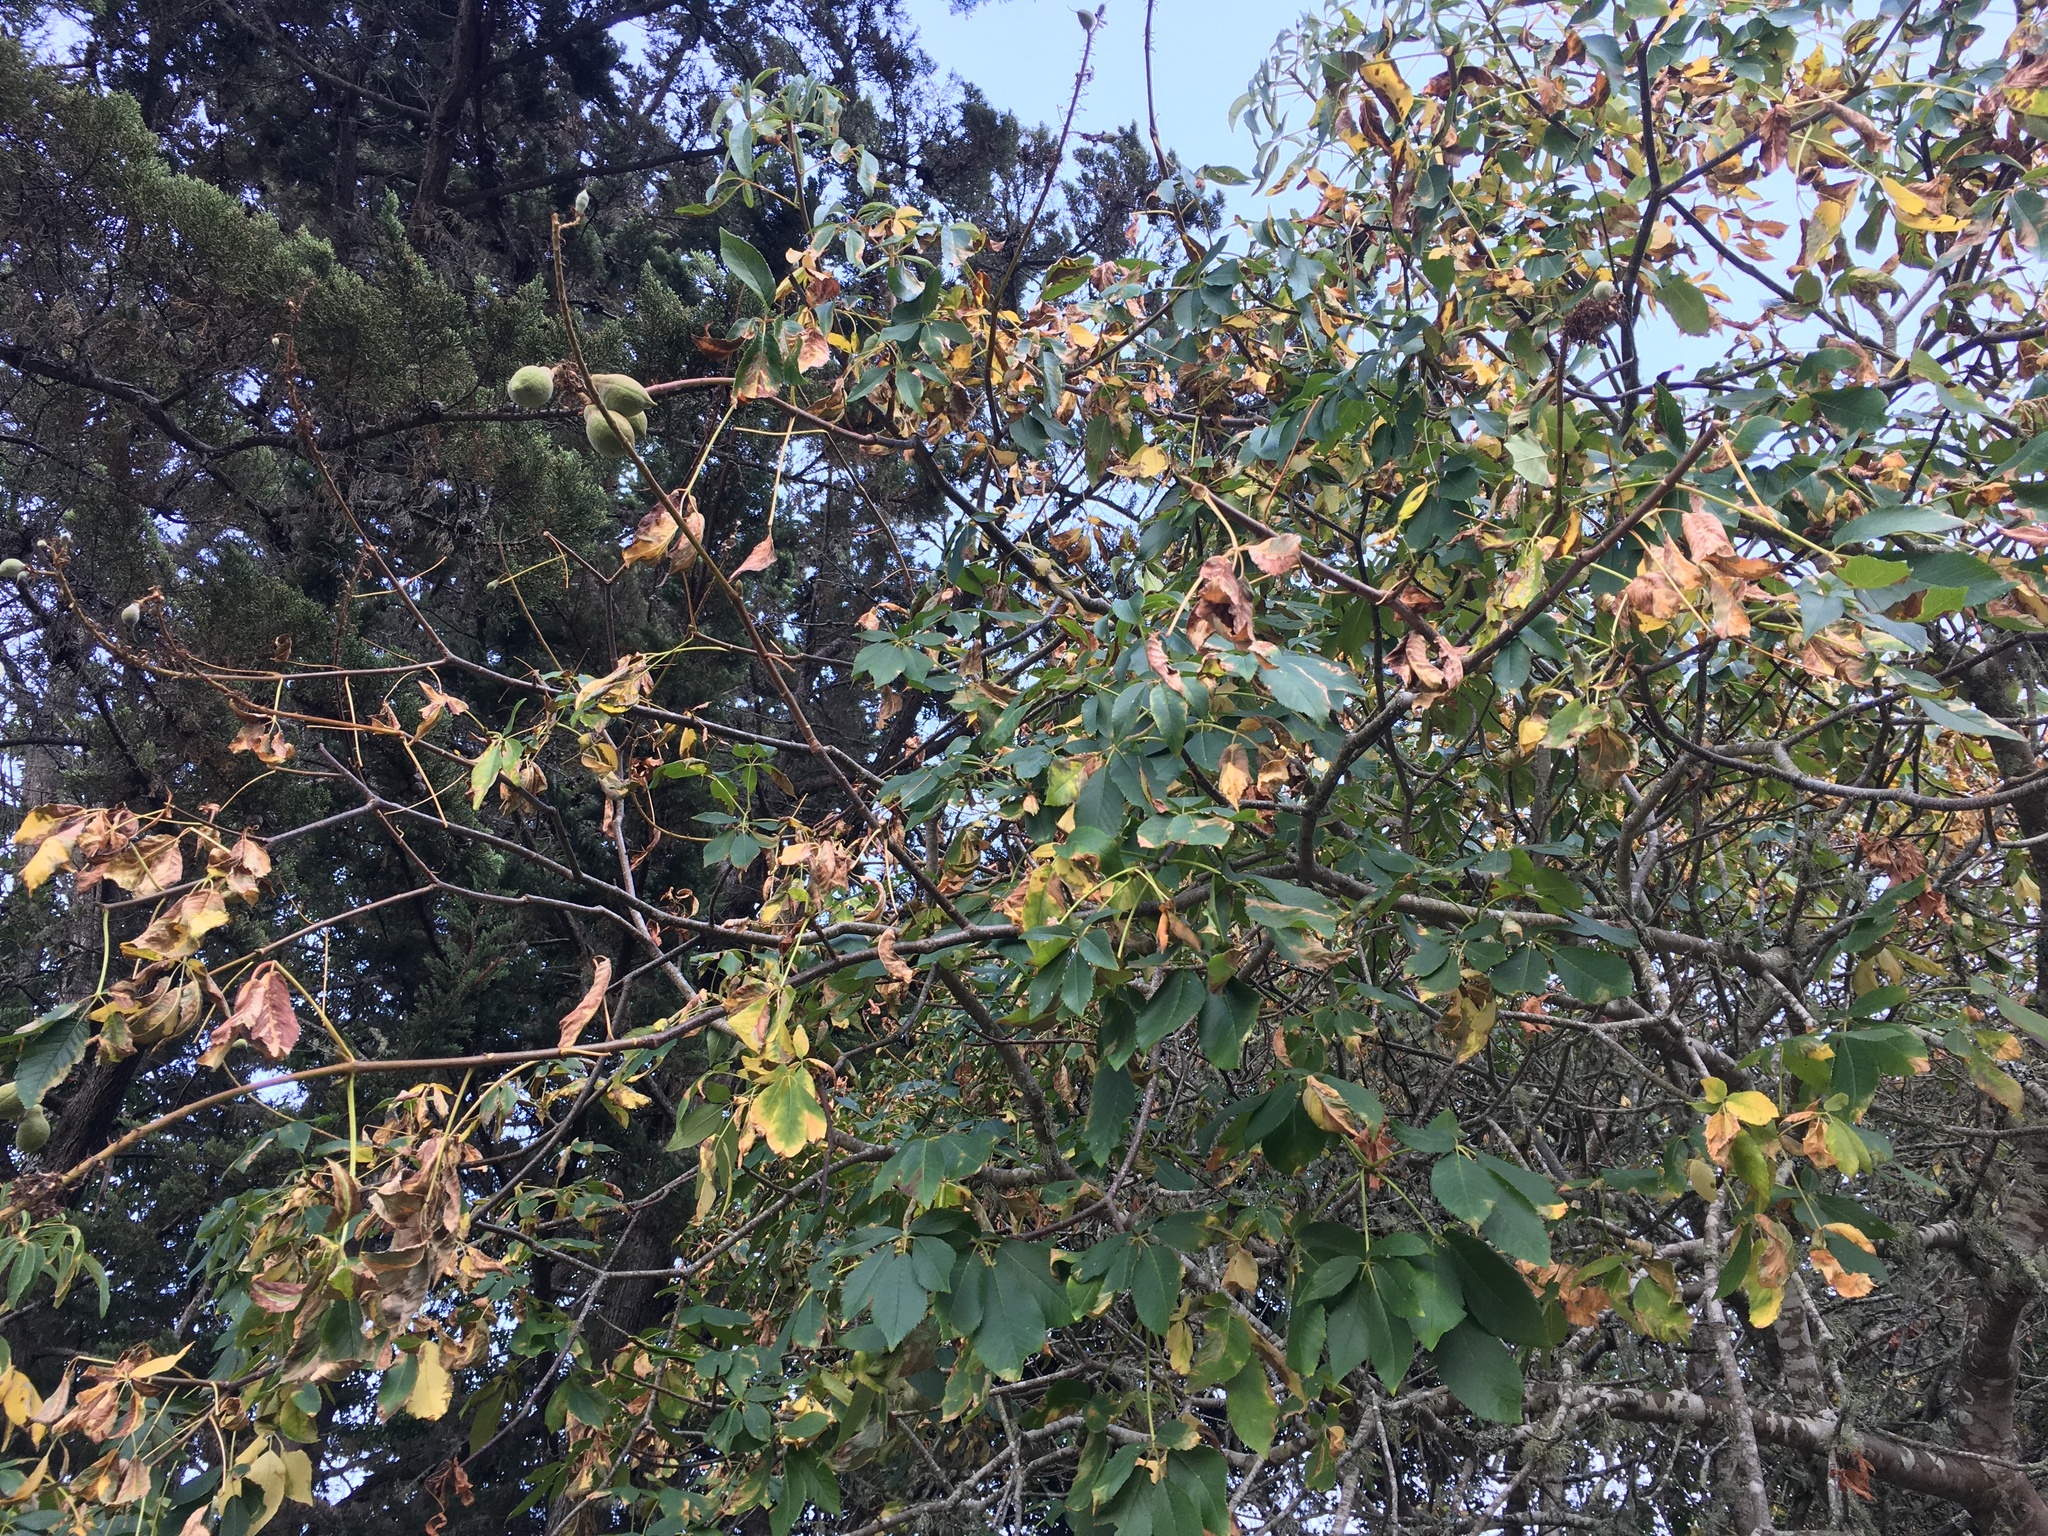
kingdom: Plantae
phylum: Tracheophyta
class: Magnoliopsida
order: Sapindales
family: Sapindaceae
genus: Aesculus
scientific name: Aesculus californica
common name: California buckeye
